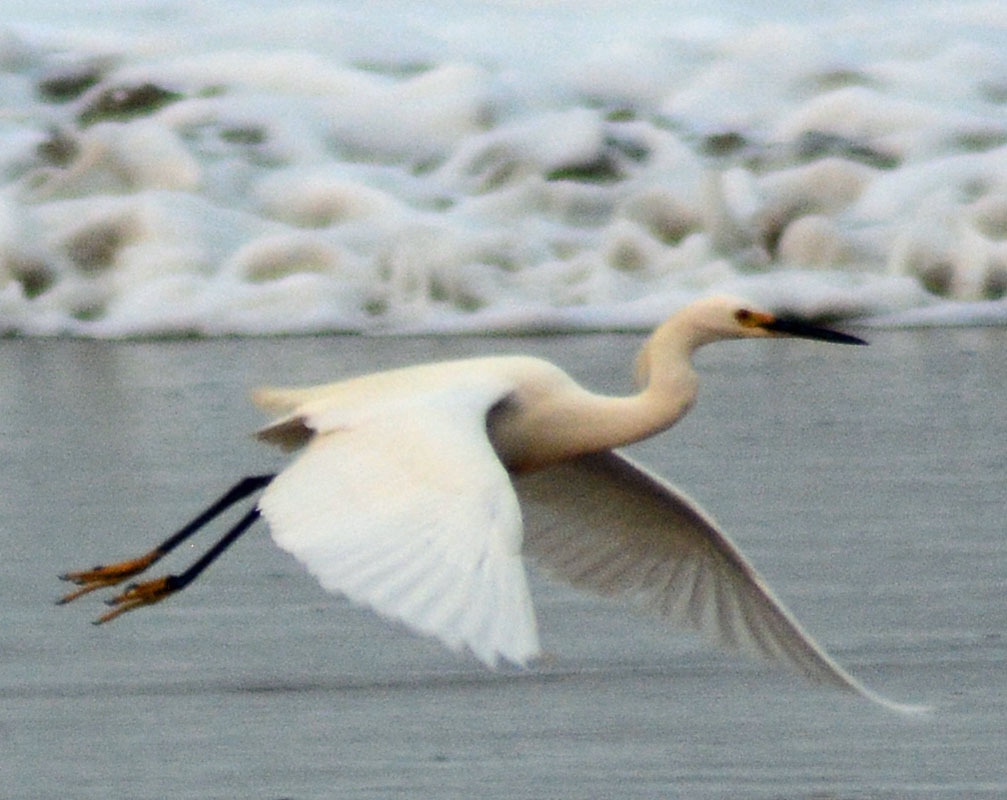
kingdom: Animalia
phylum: Chordata
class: Aves
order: Pelecaniformes
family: Ardeidae
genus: Egretta
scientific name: Egretta thula
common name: Snowy egret
